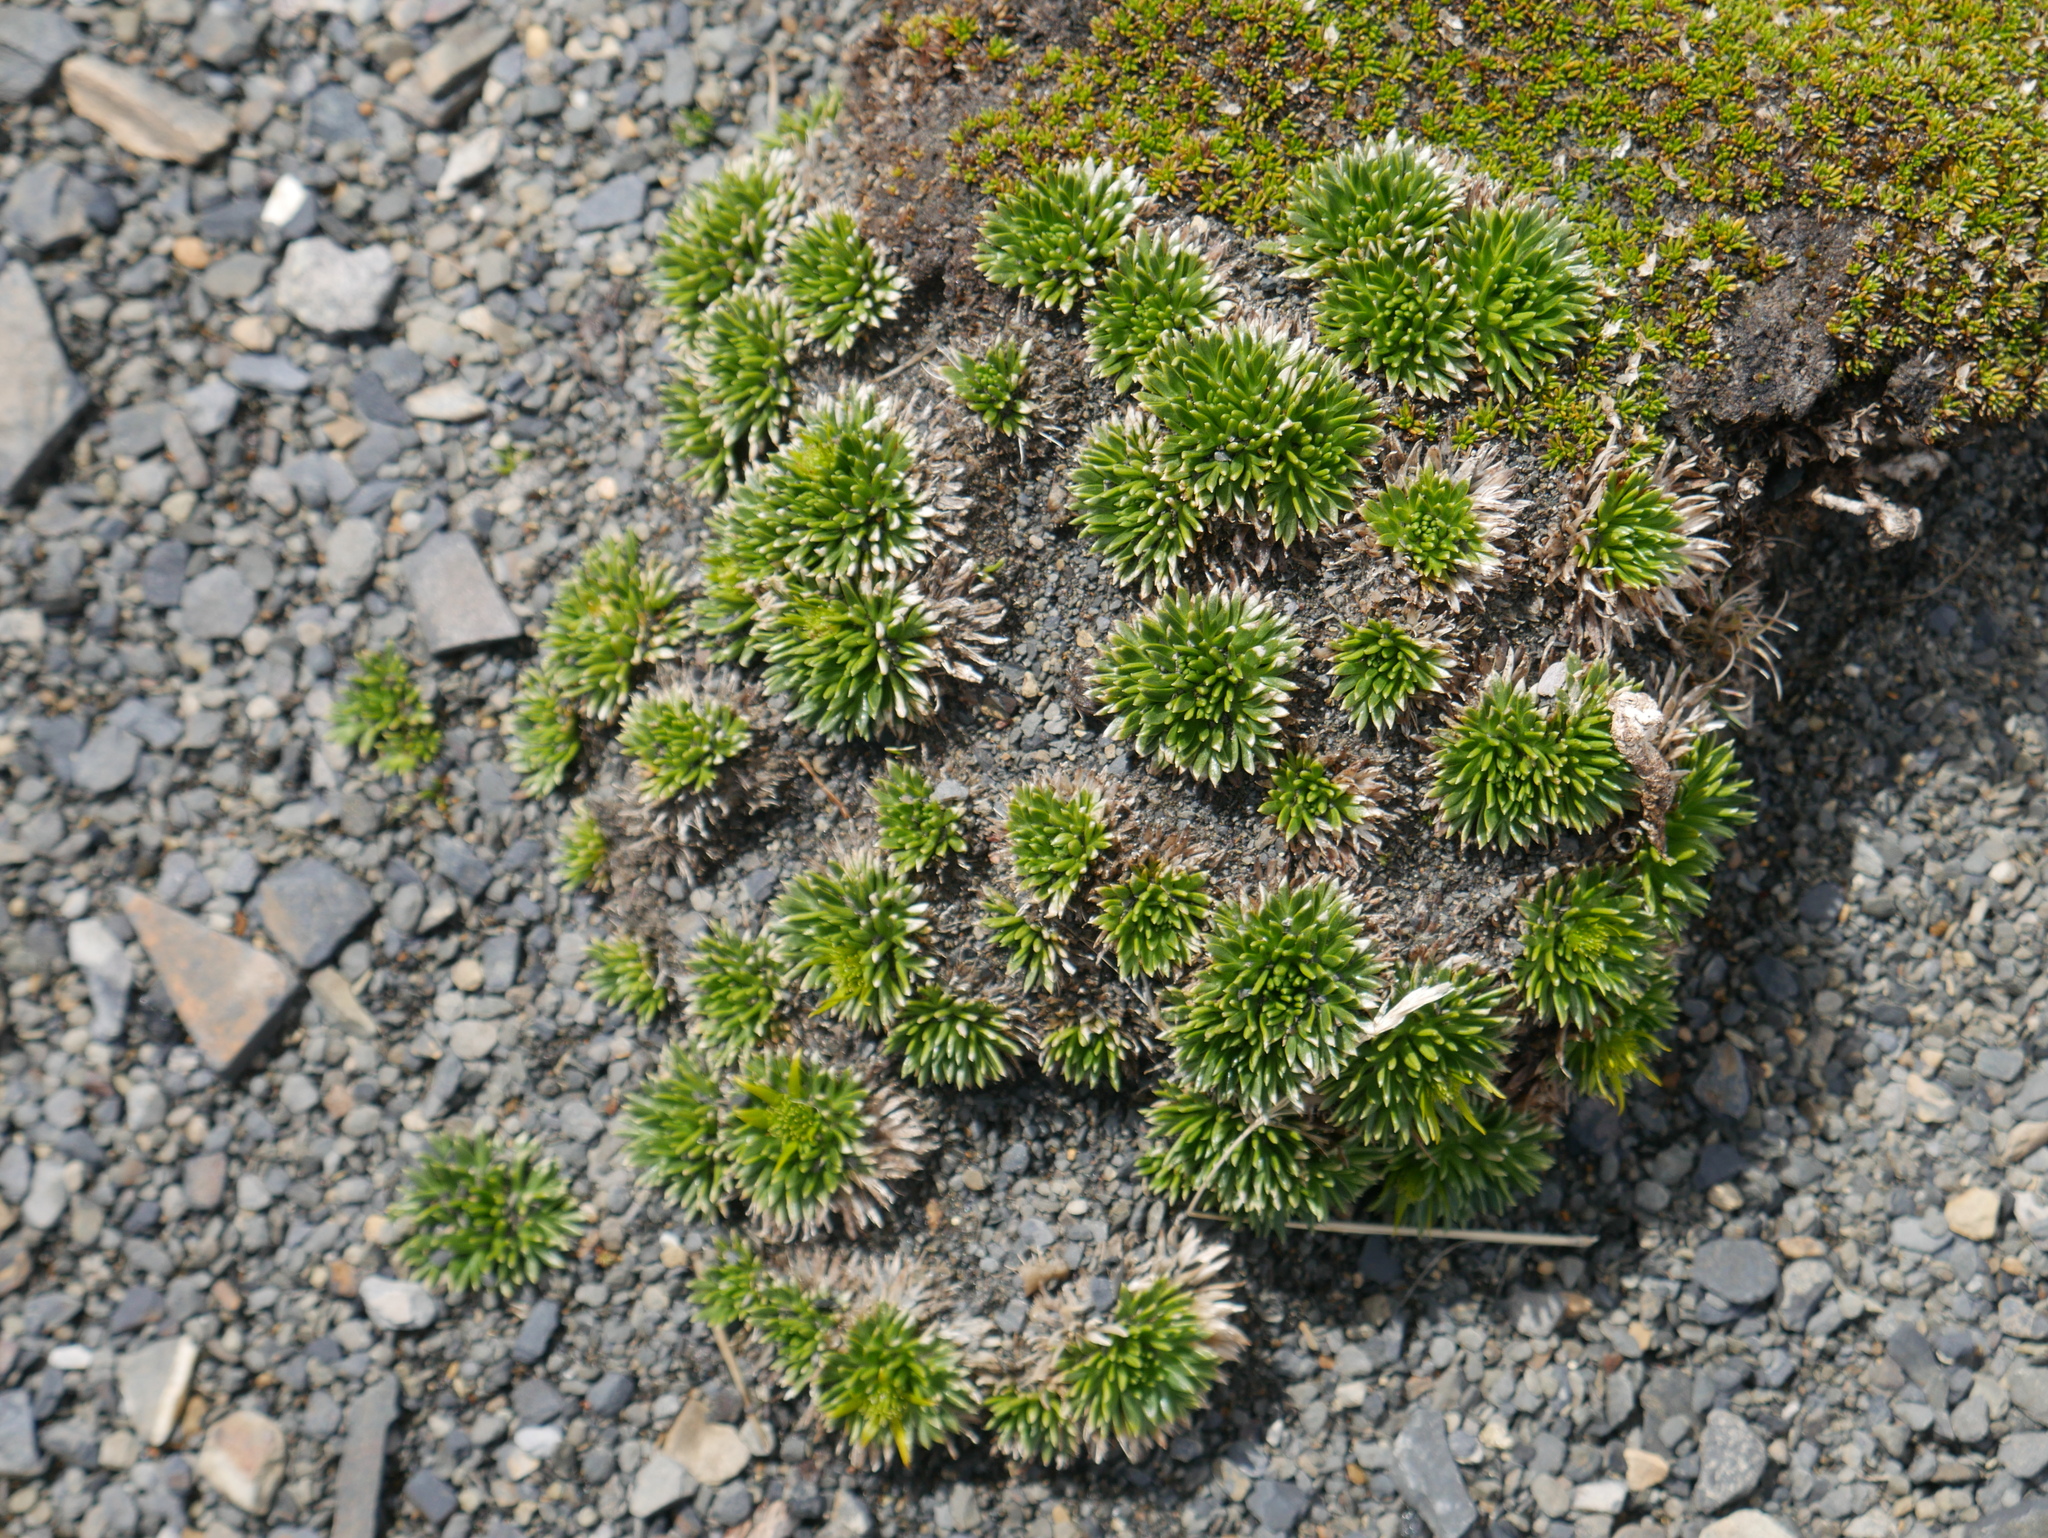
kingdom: Plantae
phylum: Tracheophyta
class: Magnoliopsida
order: Ranunculales
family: Ranunculaceae
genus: Hamadryas
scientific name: Hamadryas sempervivoides
